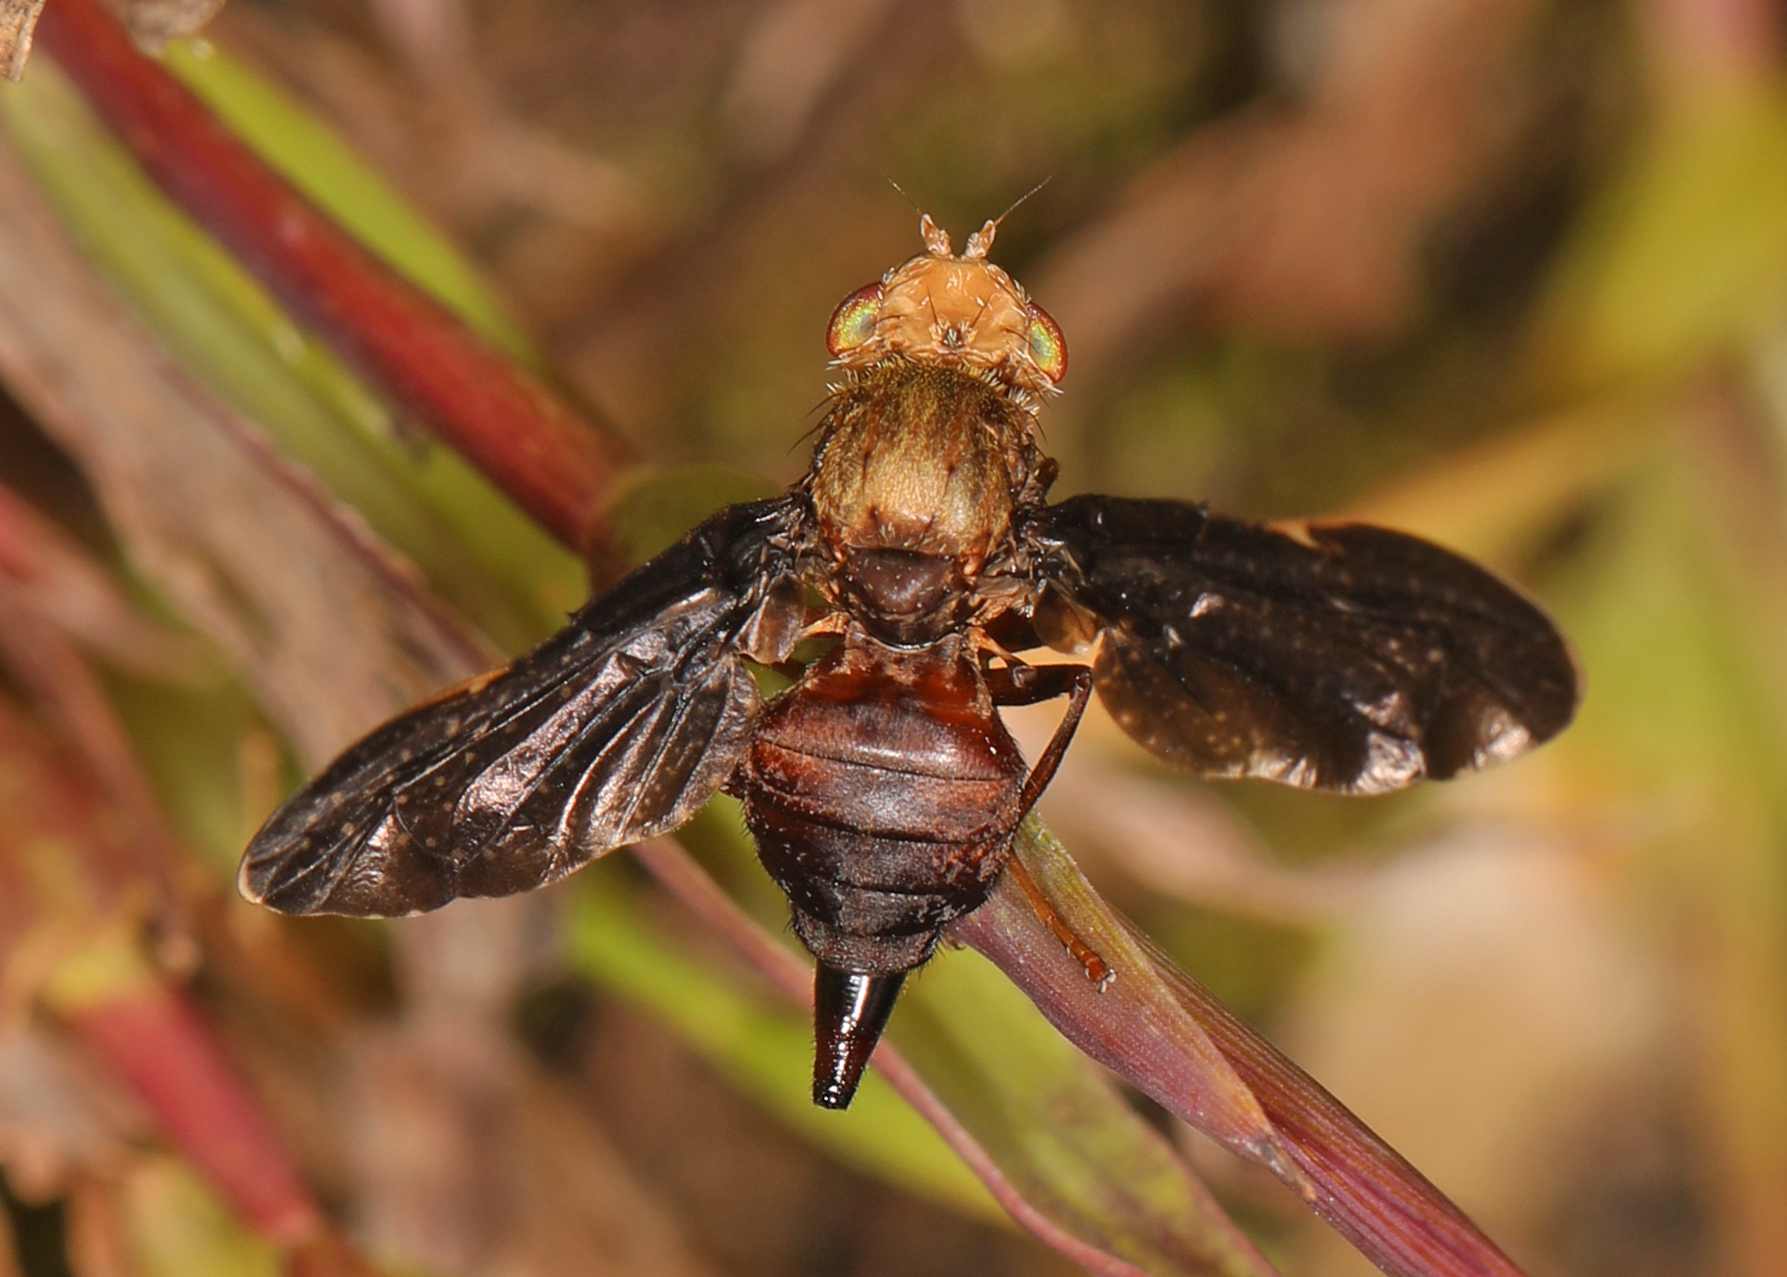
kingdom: Animalia
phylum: Arthropoda
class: Insecta
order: Diptera
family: Tephritidae
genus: Eurosta
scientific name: Eurosta comma
